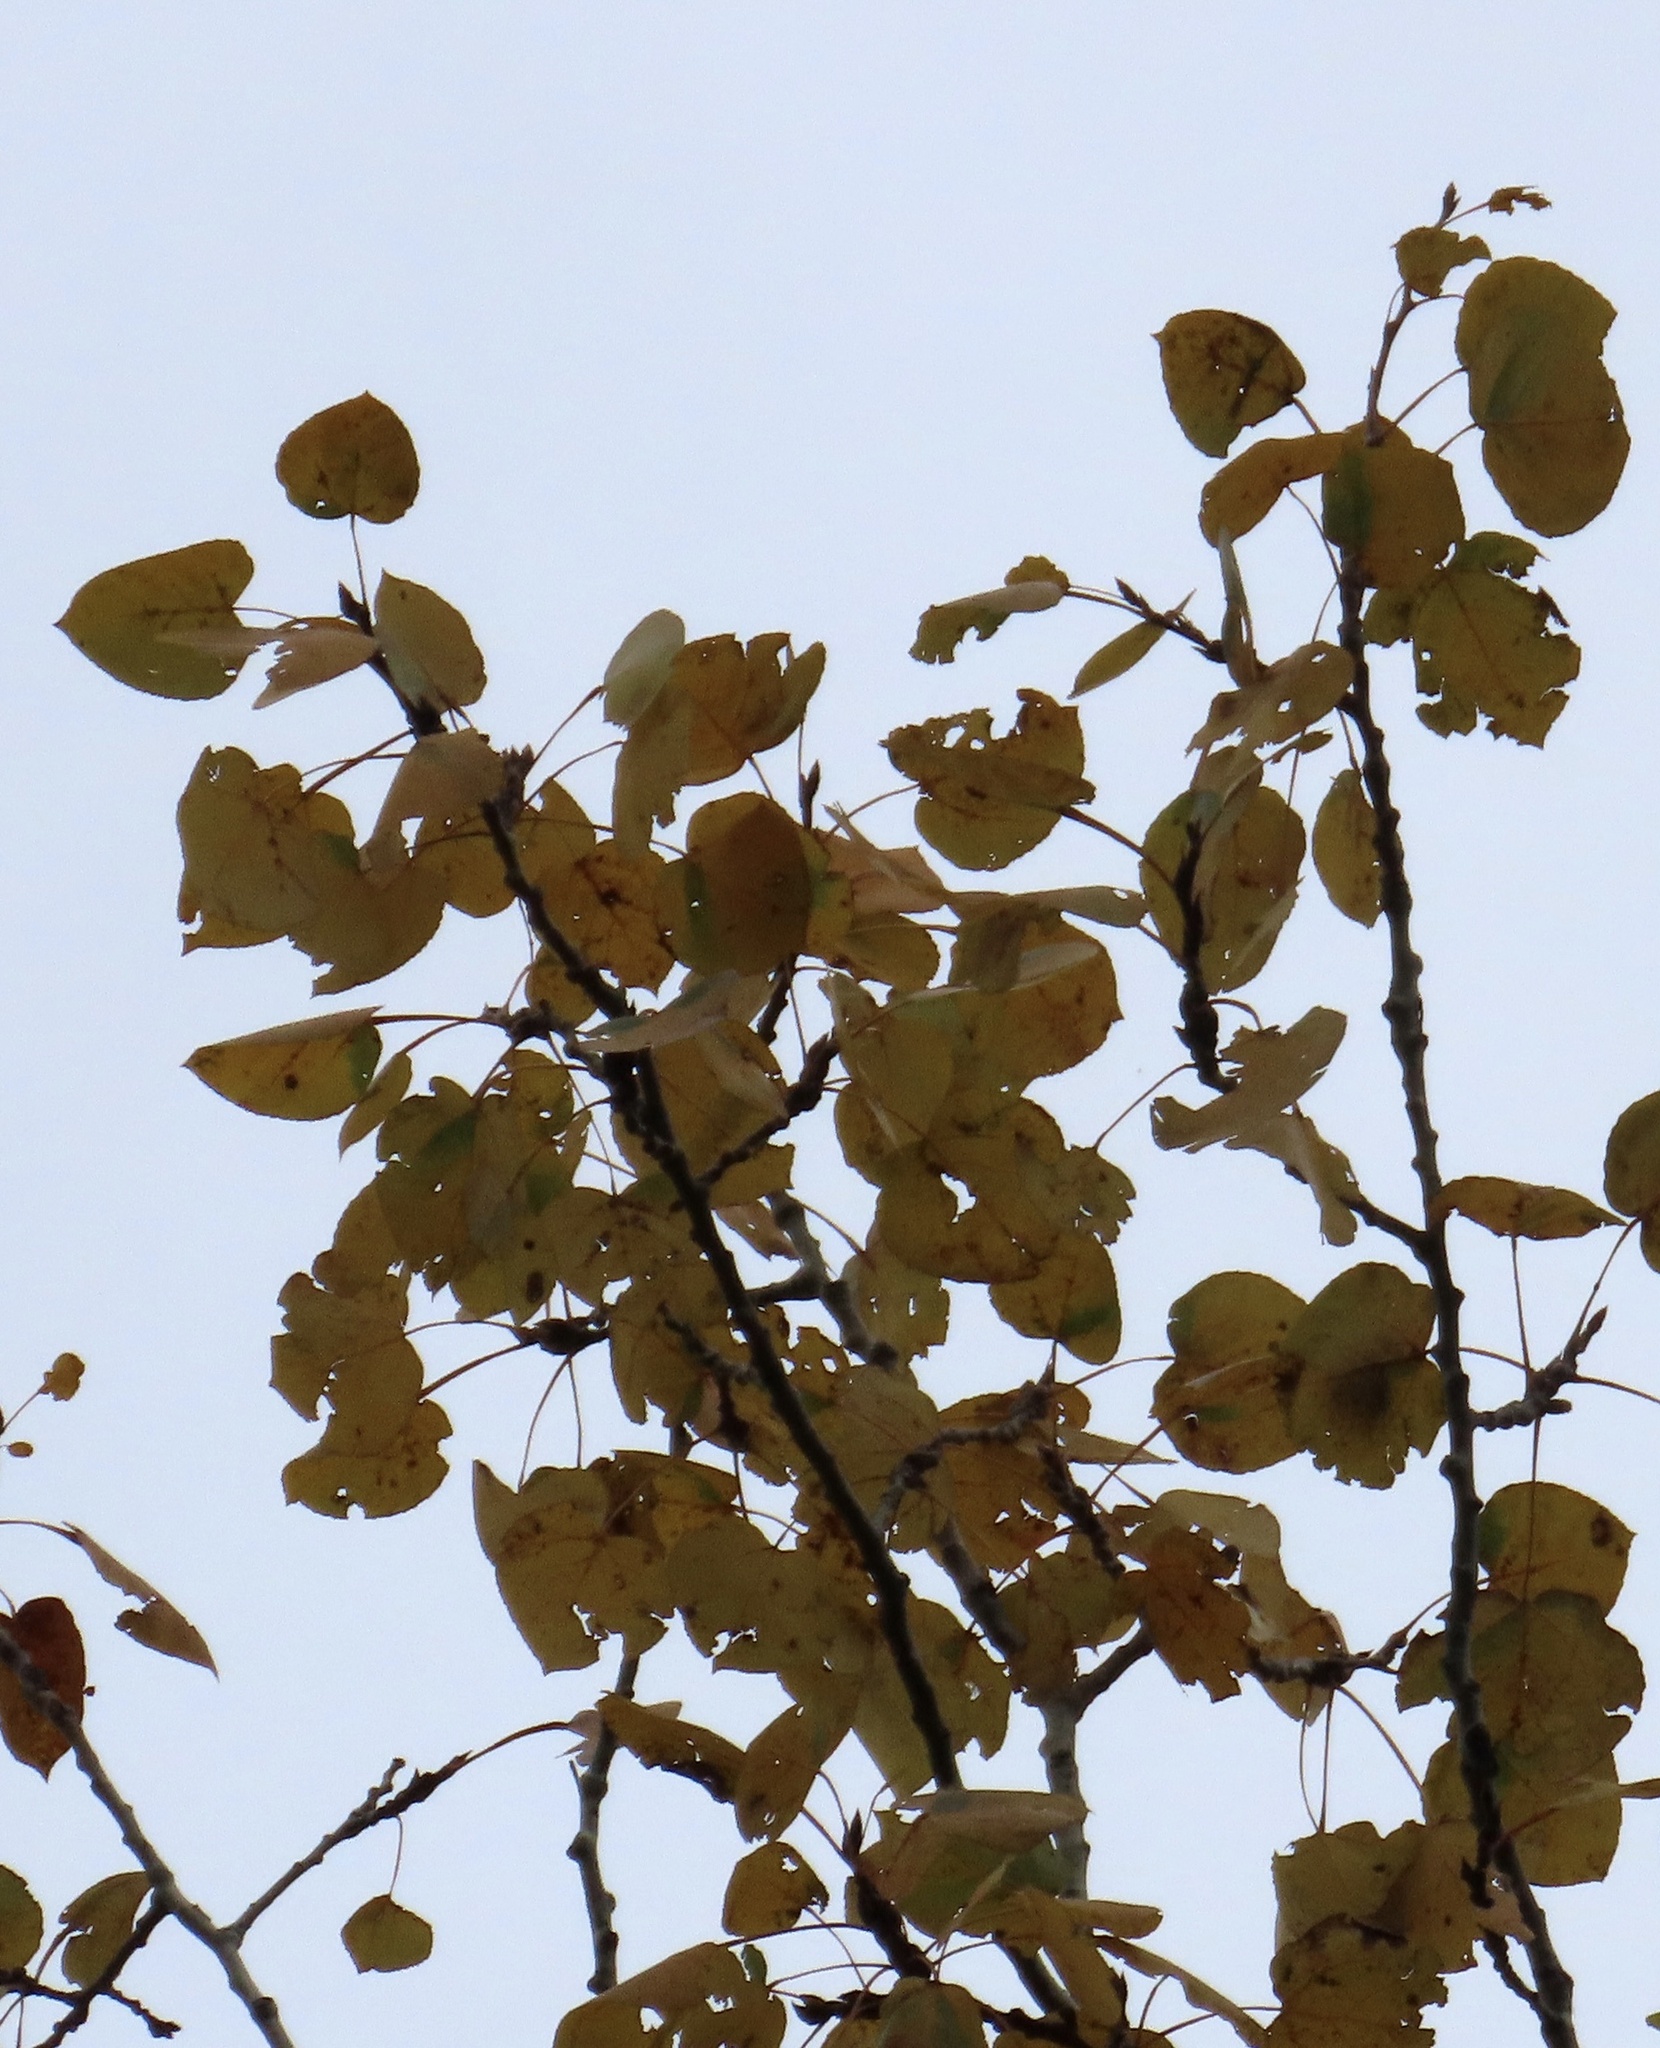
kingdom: Plantae
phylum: Tracheophyta
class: Magnoliopsida
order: Malpighiales
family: Salicaceae
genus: Populus
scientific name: Populus tremuloides
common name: Quaking aspen
